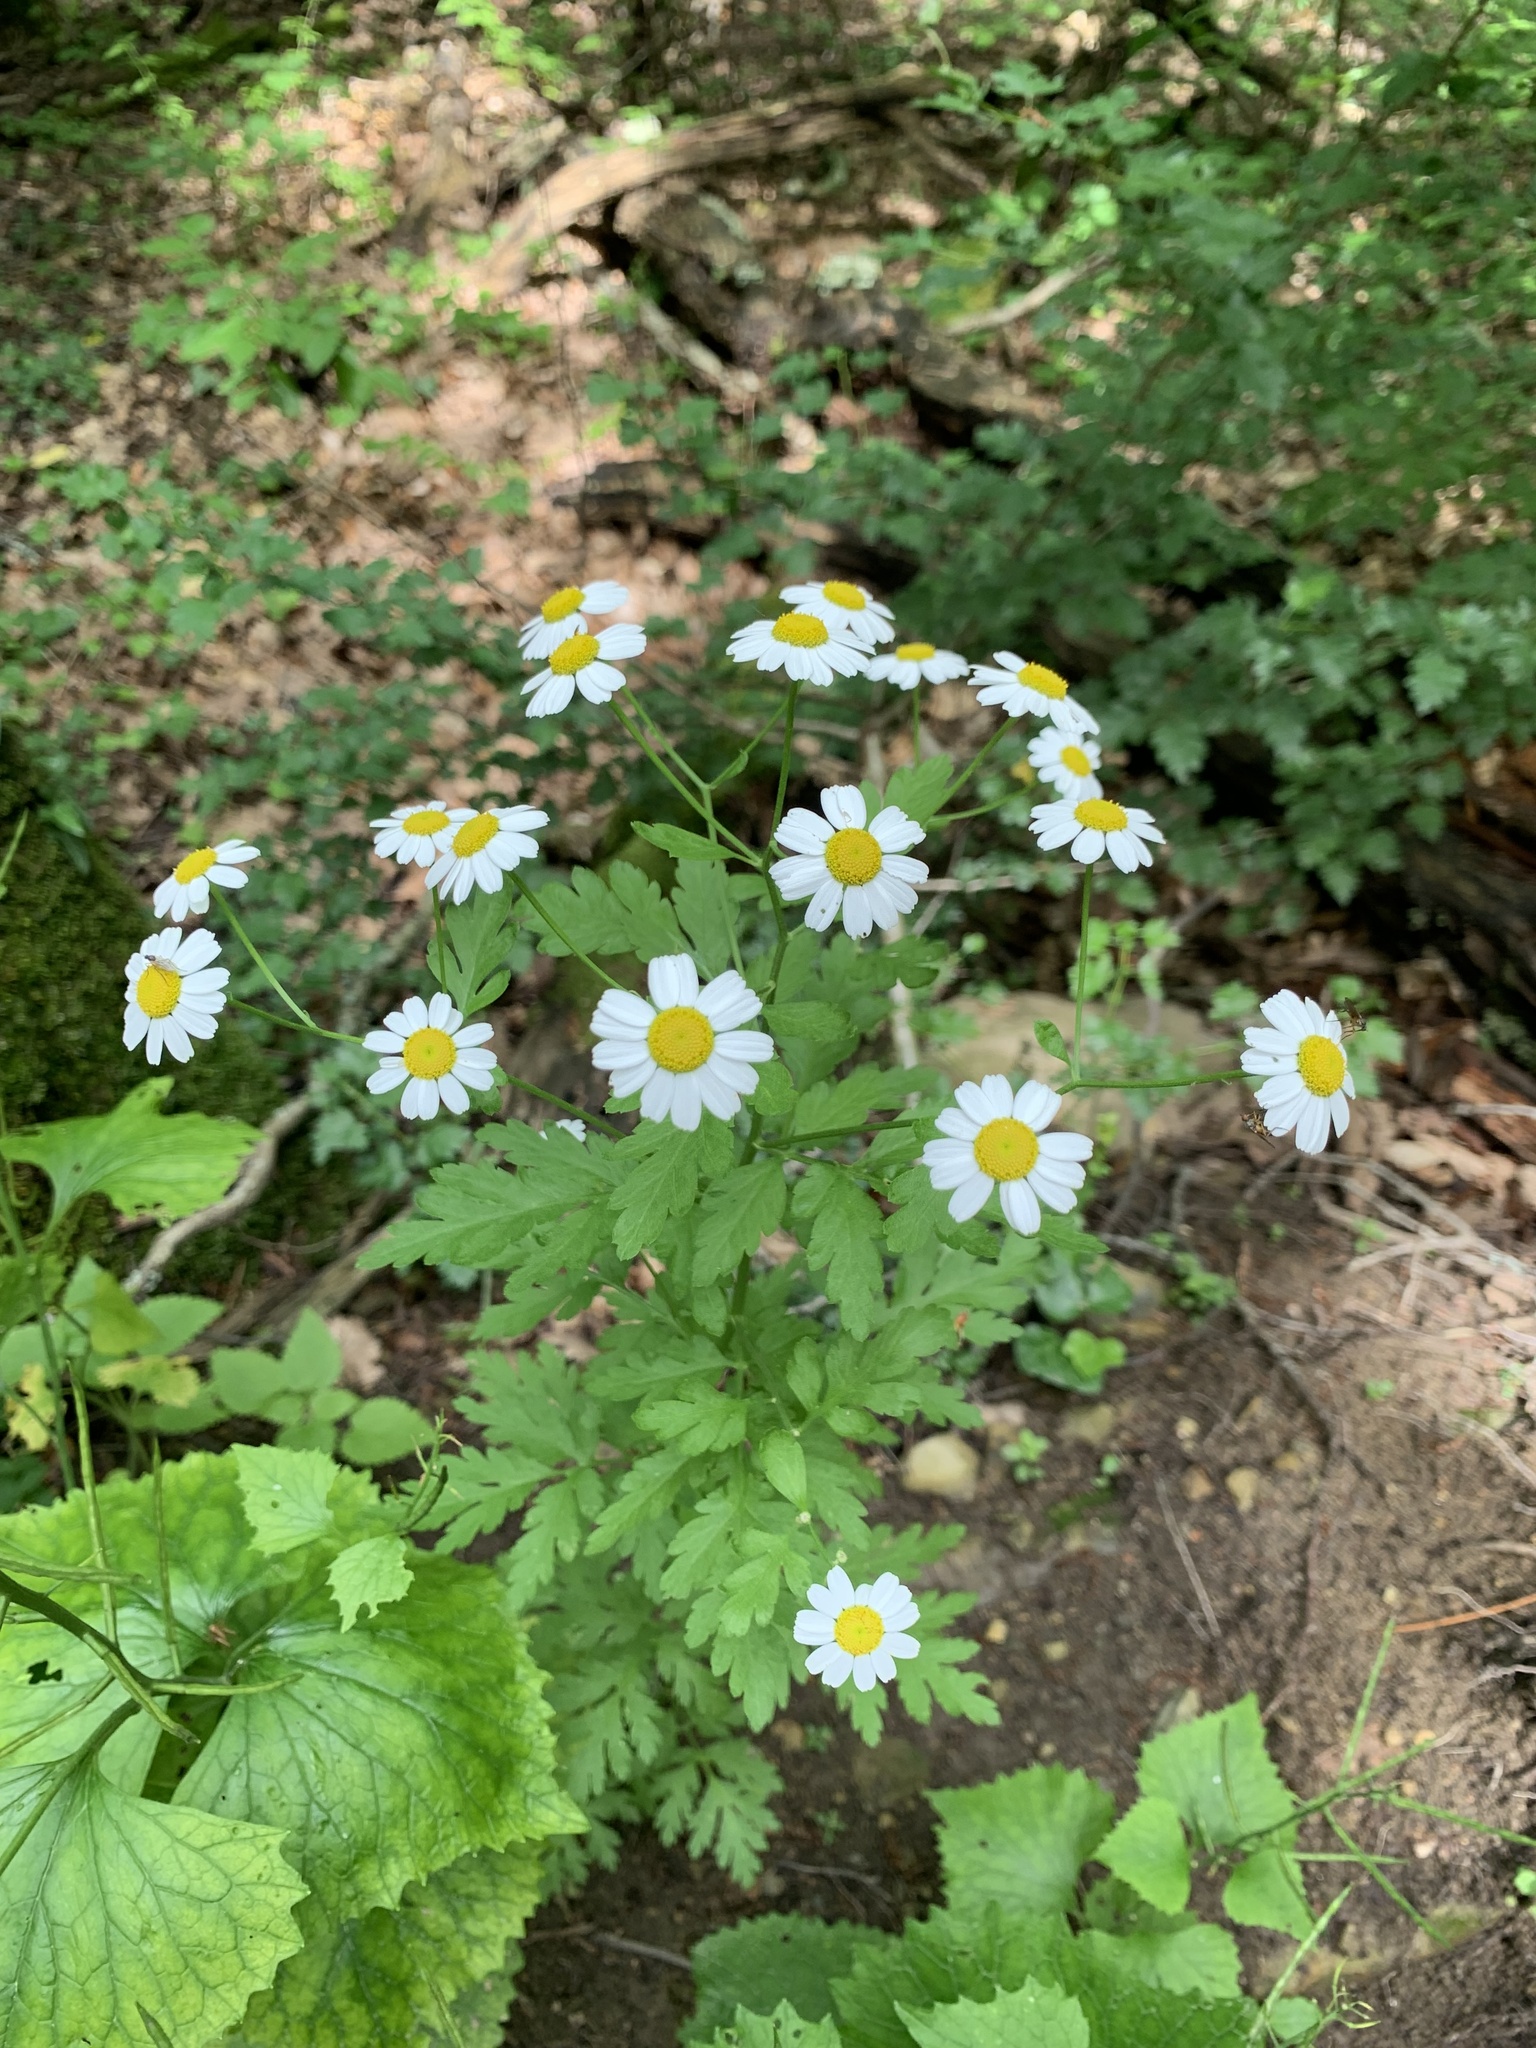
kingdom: Plantae
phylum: Tracheophyta
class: Magnoliopsida
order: Asterales
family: Asteraceae
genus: Tanacetum
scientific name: Tanacetum partheniifolium
